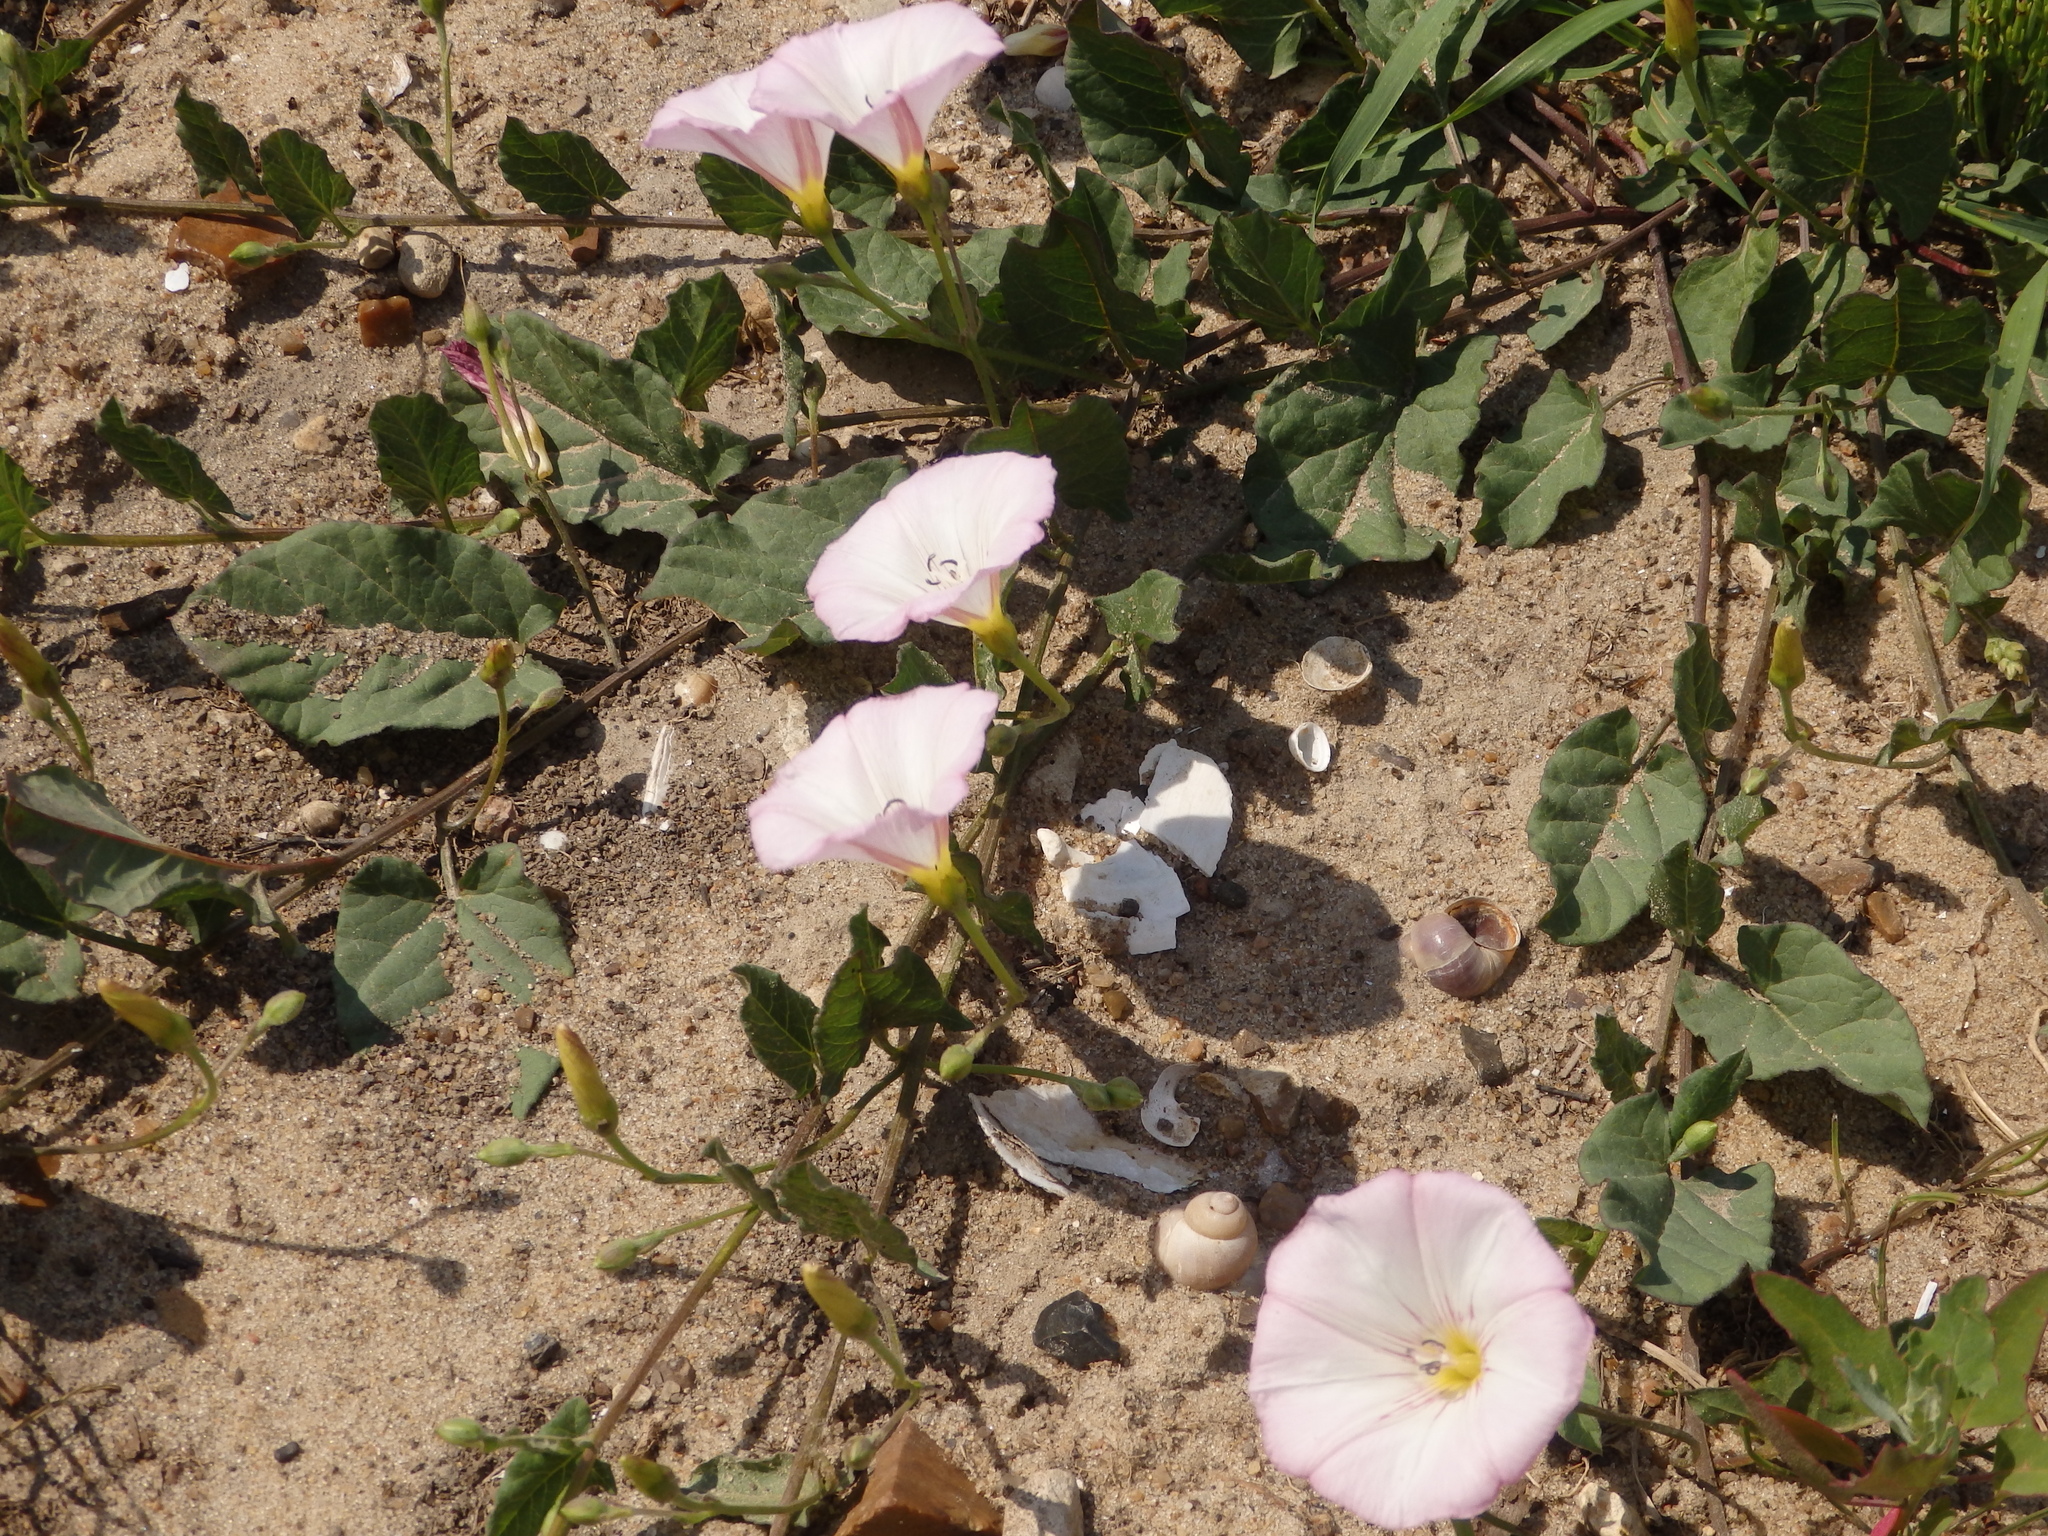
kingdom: Plantae
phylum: Tracheophyta
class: Magnoliopsida
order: Solanales
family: Convolvulaceae
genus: Convolvulus
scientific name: Convolvulus arvensis
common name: Field bindweed
